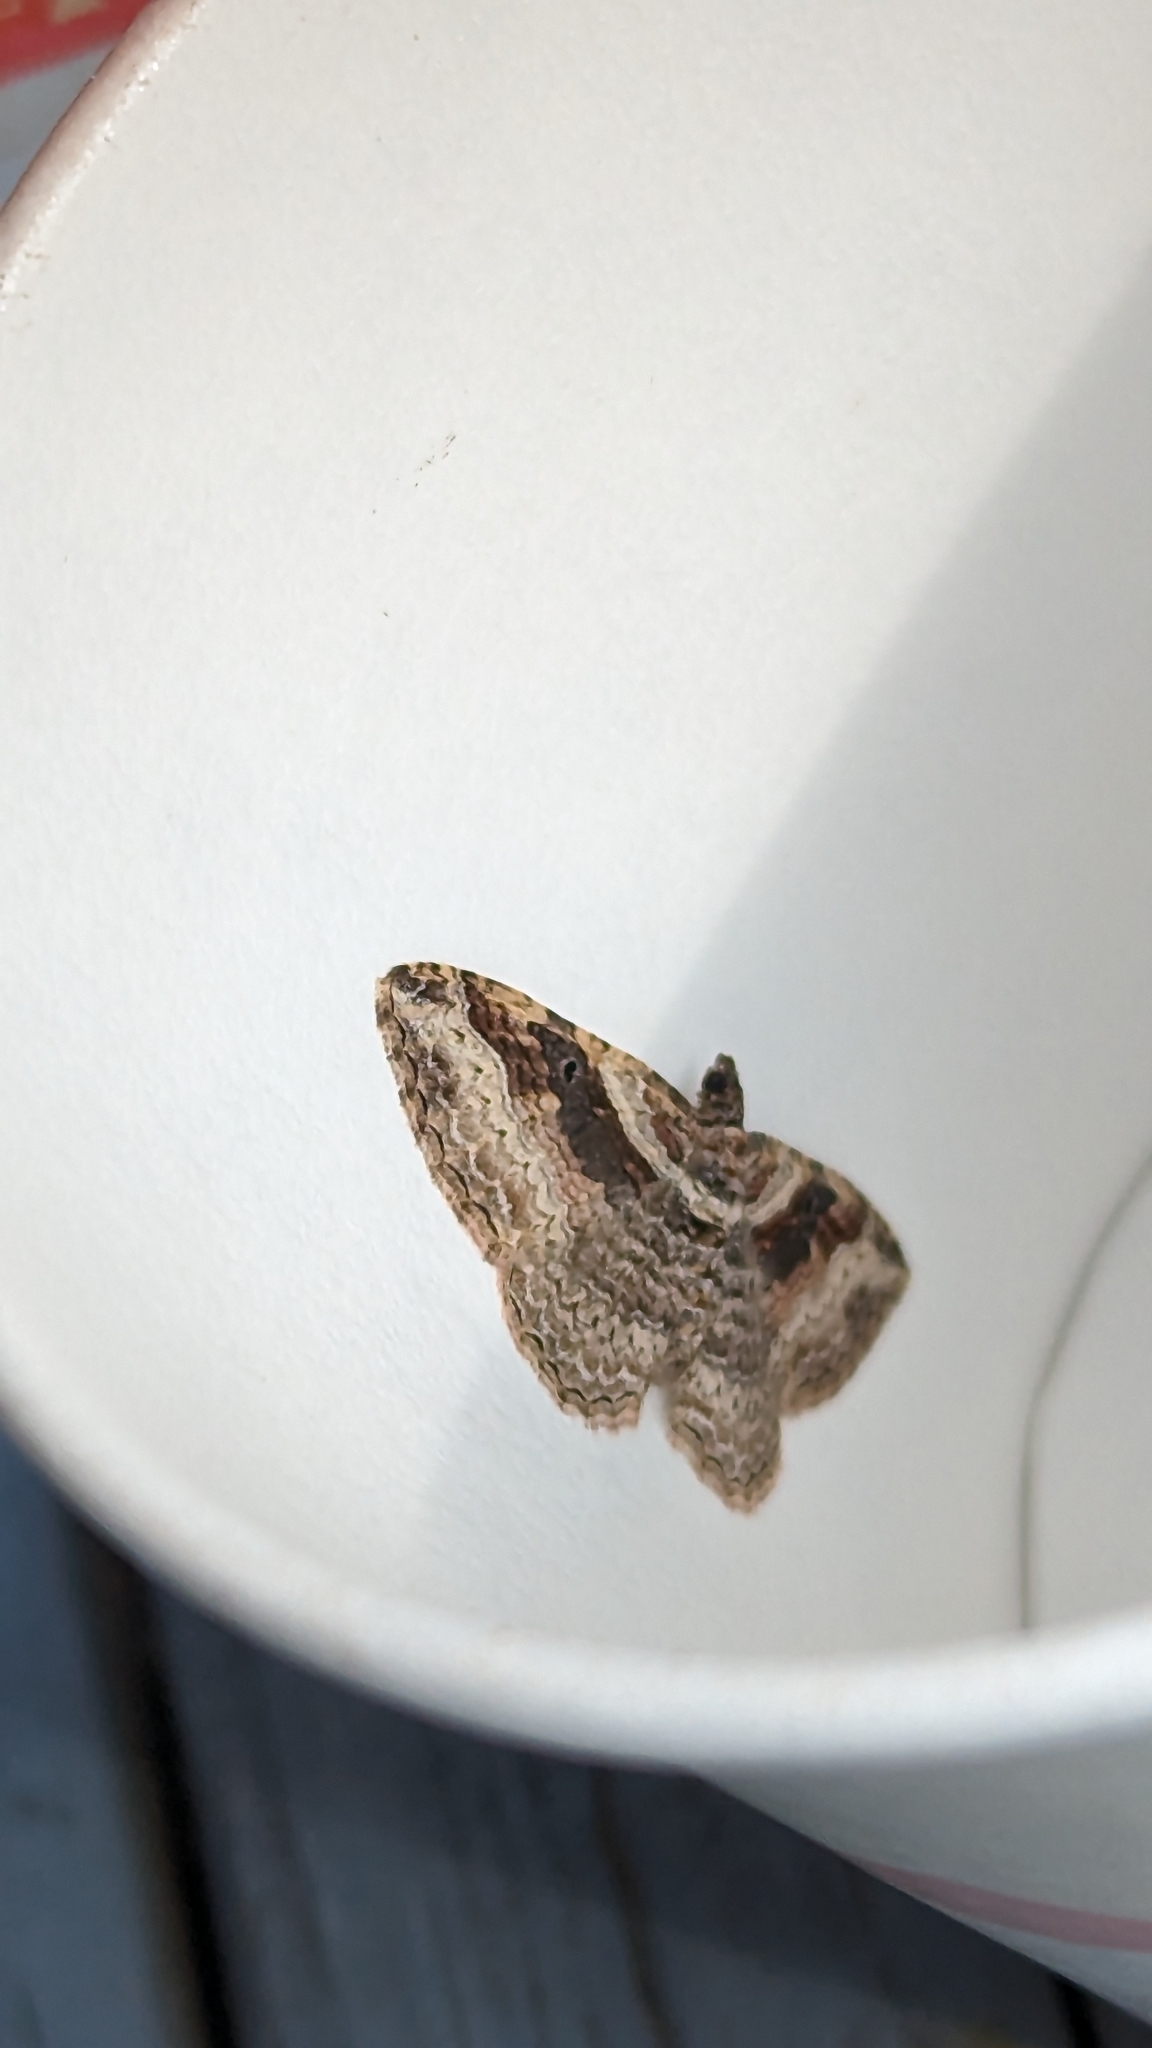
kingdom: Animalia
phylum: Arthropoda
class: Insecta
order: Lepidoptera
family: Geometridae
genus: Costaconvexa
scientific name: Costaconvexa centrostrigaria
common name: Bent-line carpet
